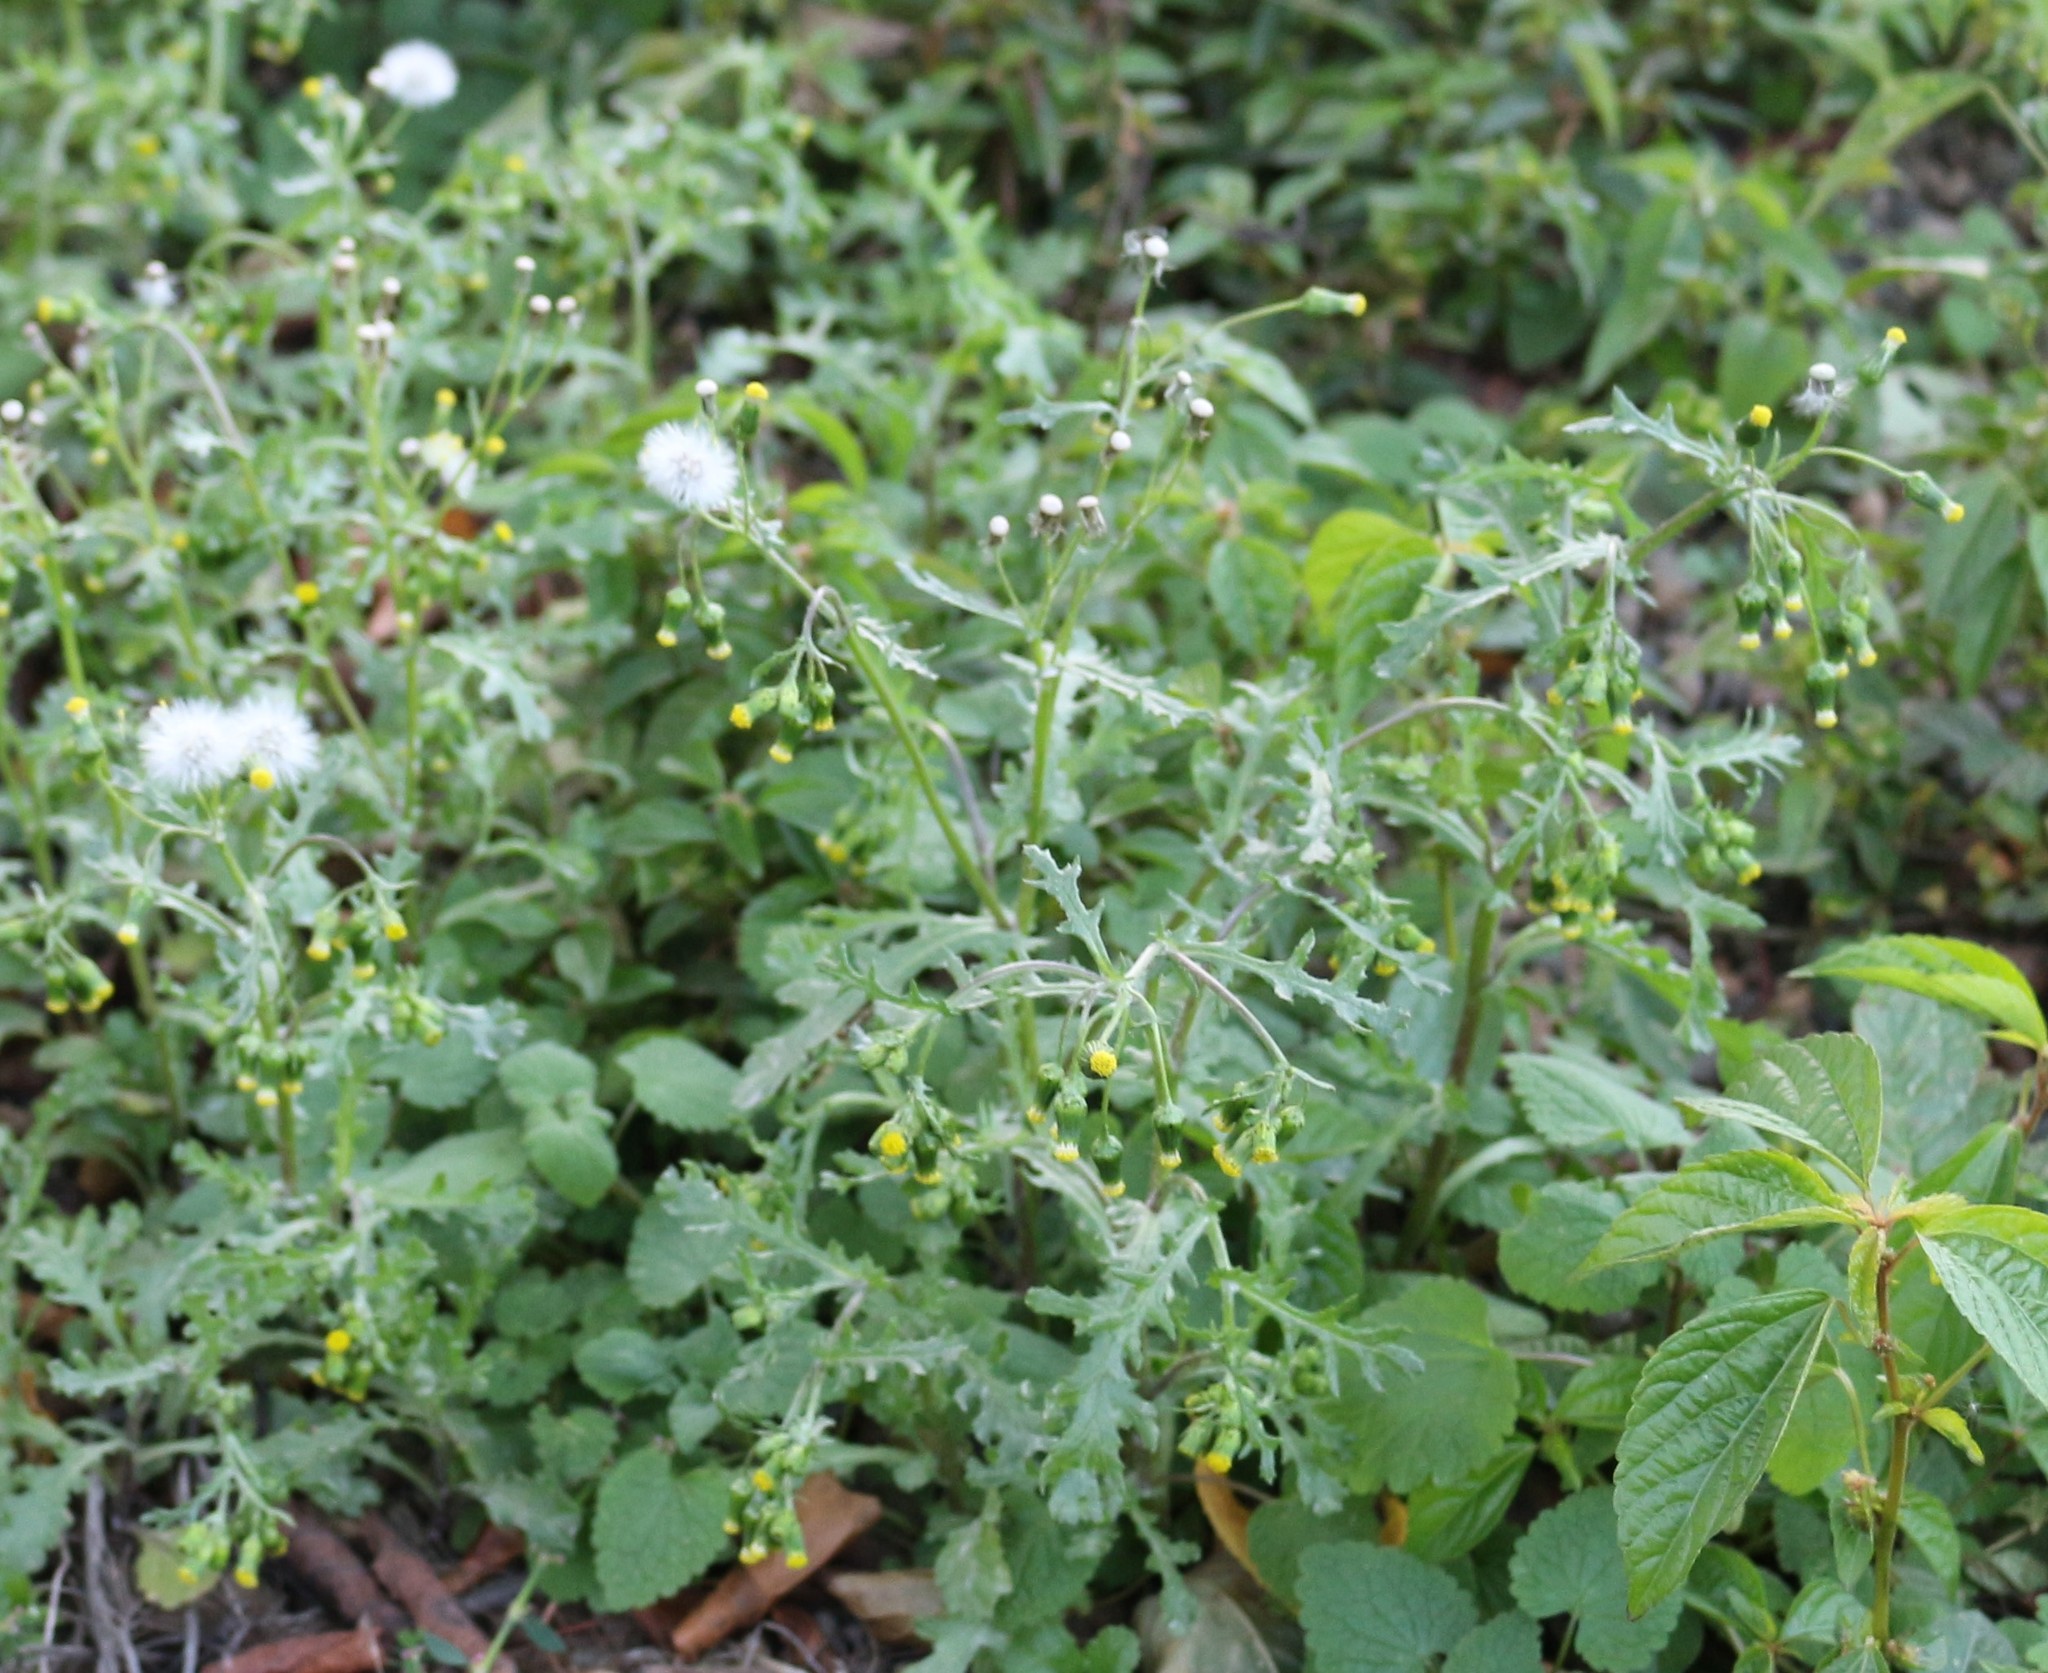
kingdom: Plantae
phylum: Tracheophyta
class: Magnoliopsida
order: Asterales
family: Asteraceae
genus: Senecio
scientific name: Senecio vulgaris
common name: Old-man-in-the-spring
